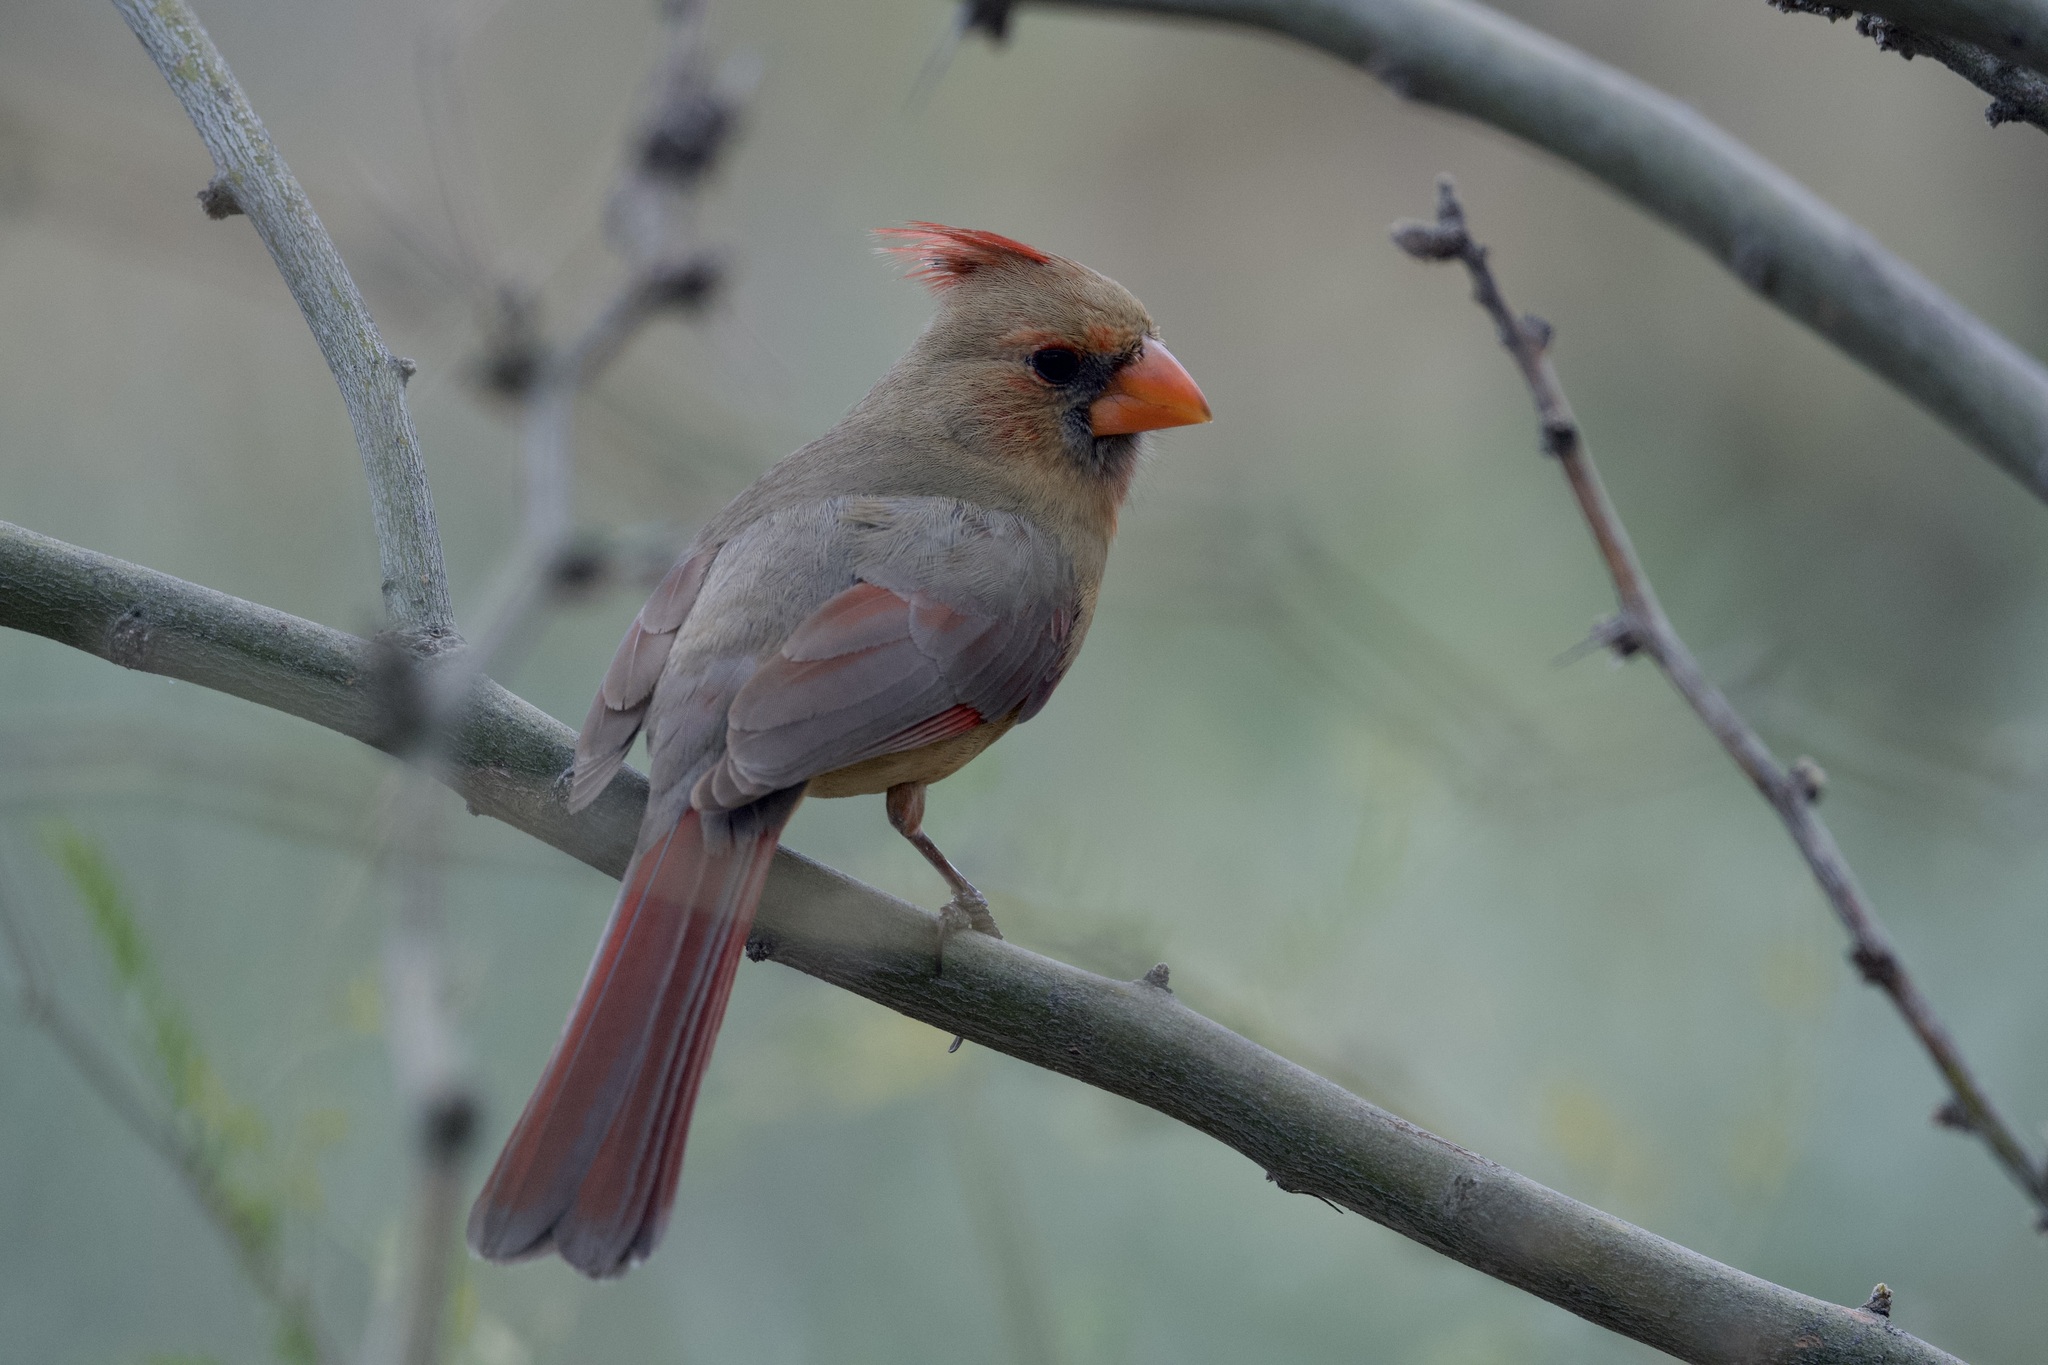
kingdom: Animalia
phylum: Chordata
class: Aves
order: Passeriformes
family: Cardinalidae
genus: Cardinalis
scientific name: Cardinalis cardinalis
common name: Northern cardinal
